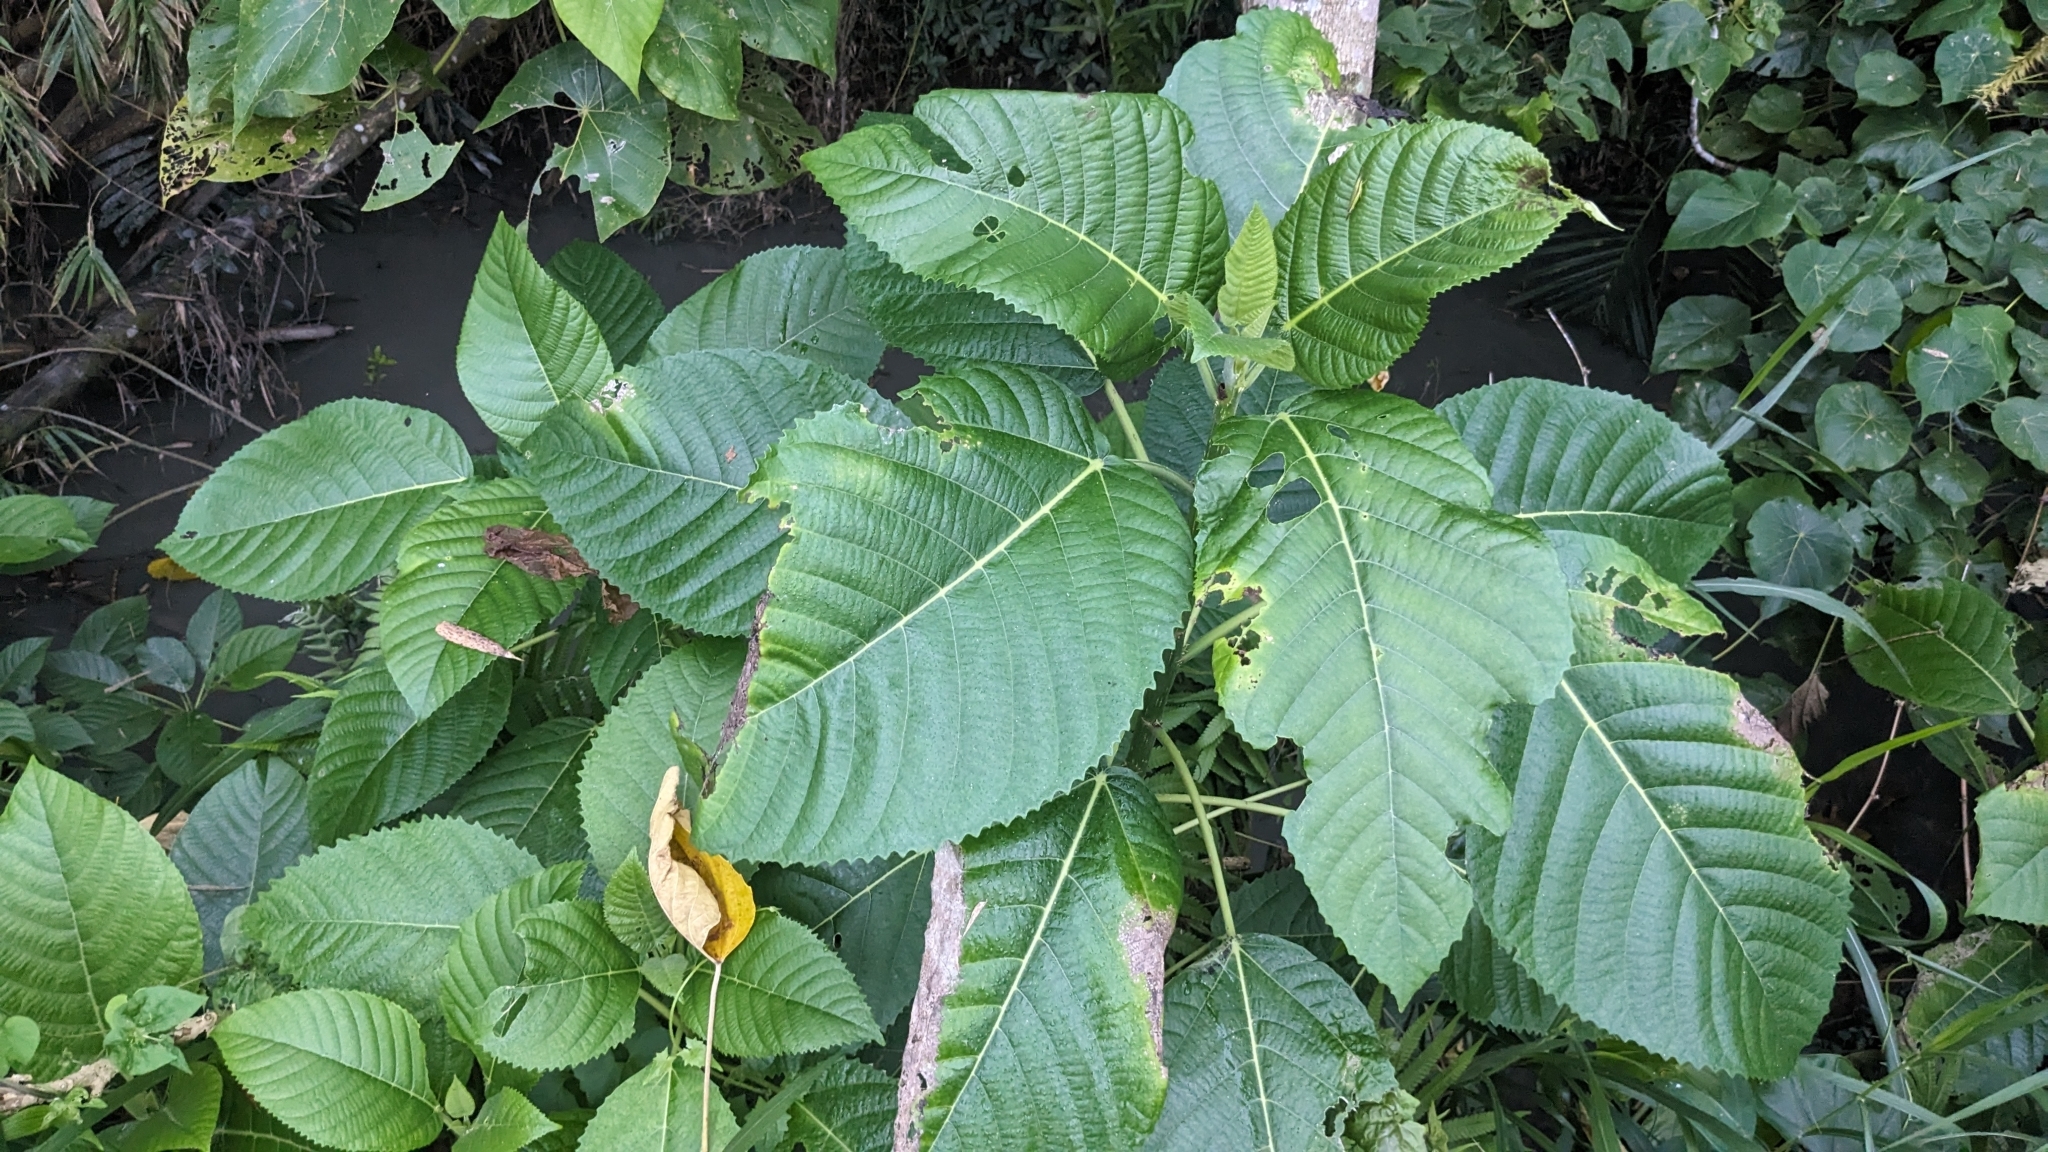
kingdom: Plantae
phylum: Tracheophyta
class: Magnoliopsida
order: Rosales
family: Urticaceae
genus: Dendrocnide
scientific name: Dendrocnide meyeniana
